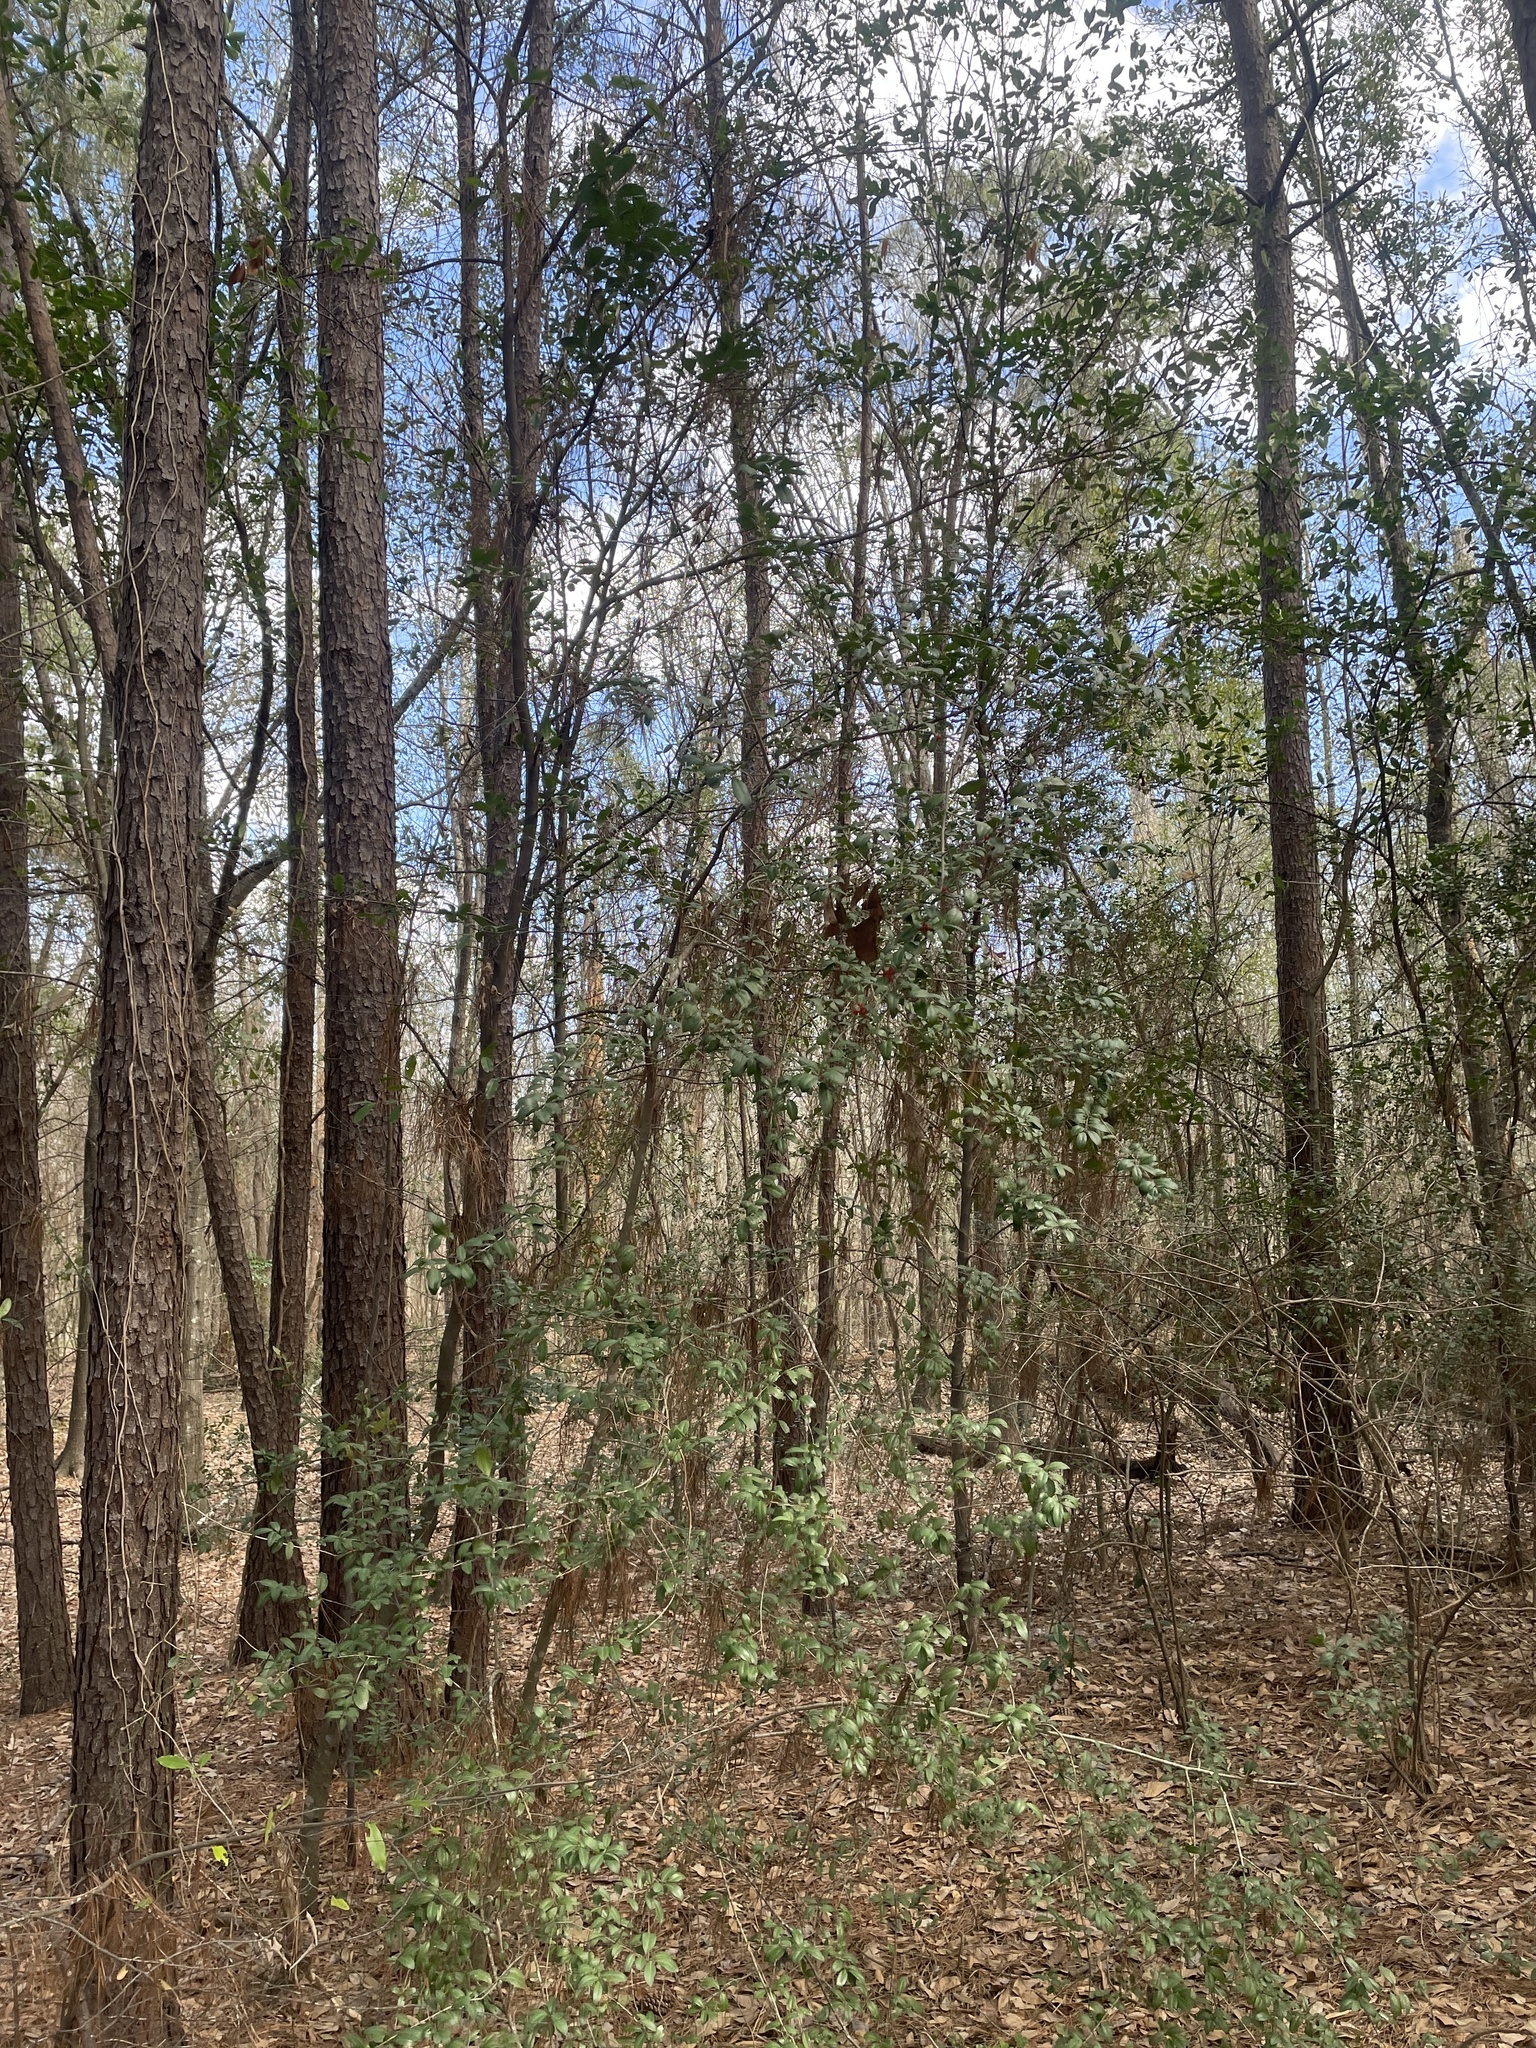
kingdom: Plantae
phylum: Tracheophyta
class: Magnoliopsida
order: Aquifoliales
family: Aquifoliaceae
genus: Ilex
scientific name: Ilex vomitoria
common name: Yaupon holly
